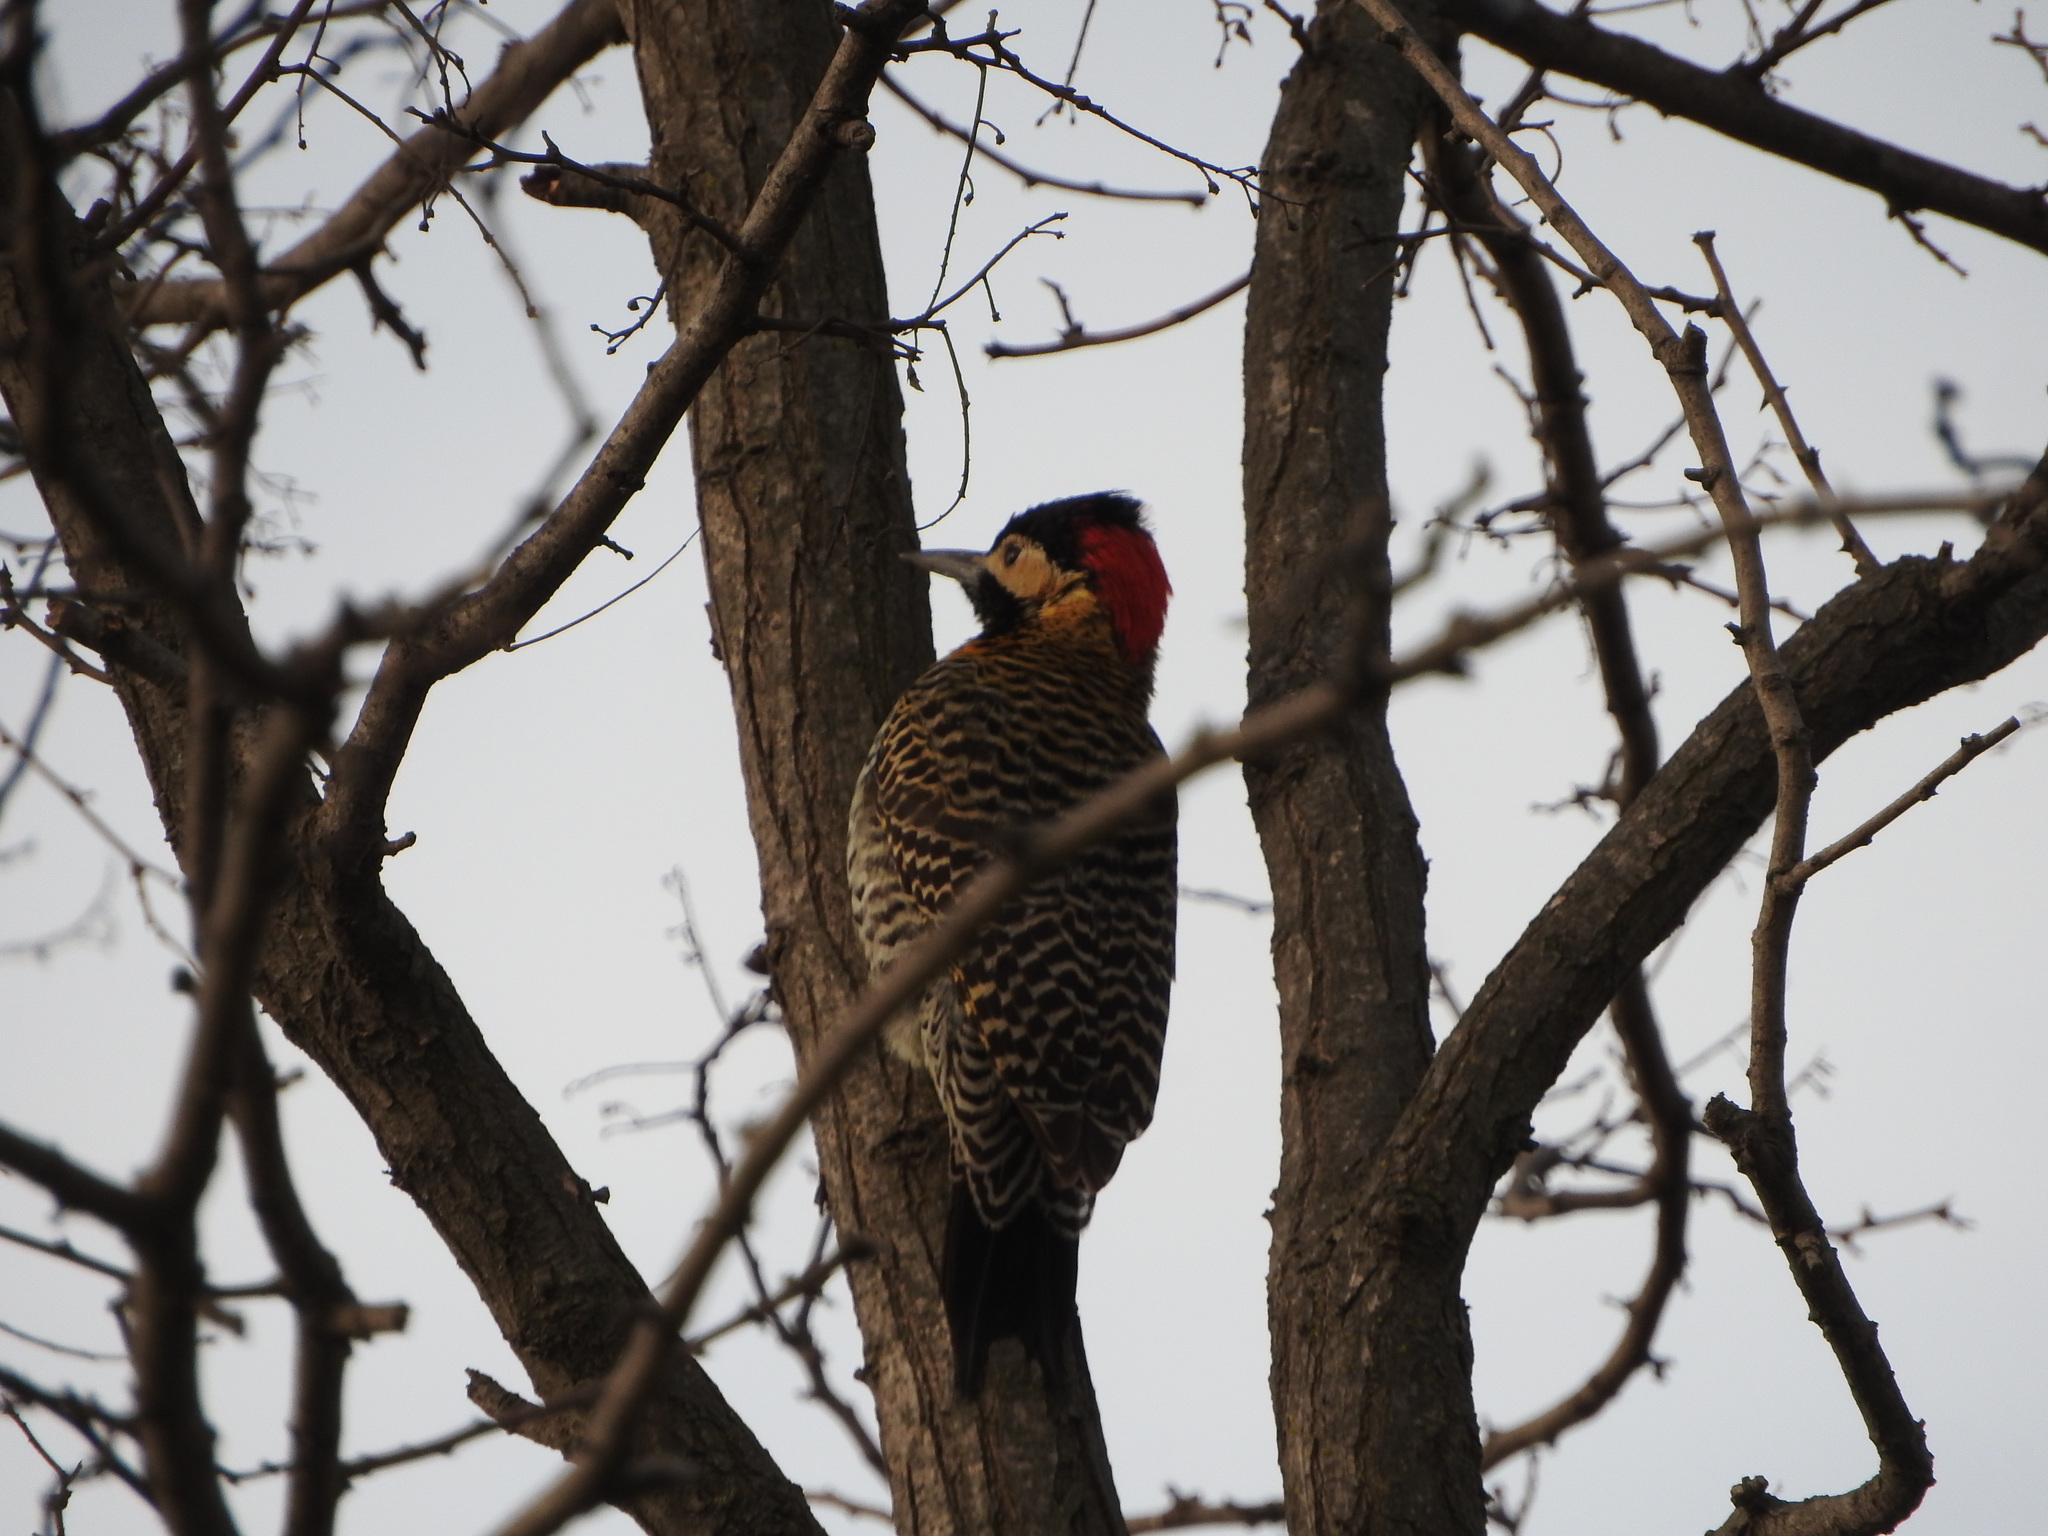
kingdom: Animalia
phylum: Chordata
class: Aves
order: Piciformes
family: Picidae
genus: Colaptes
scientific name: Colaptes melanochloros
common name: Green-barred woodpecker
